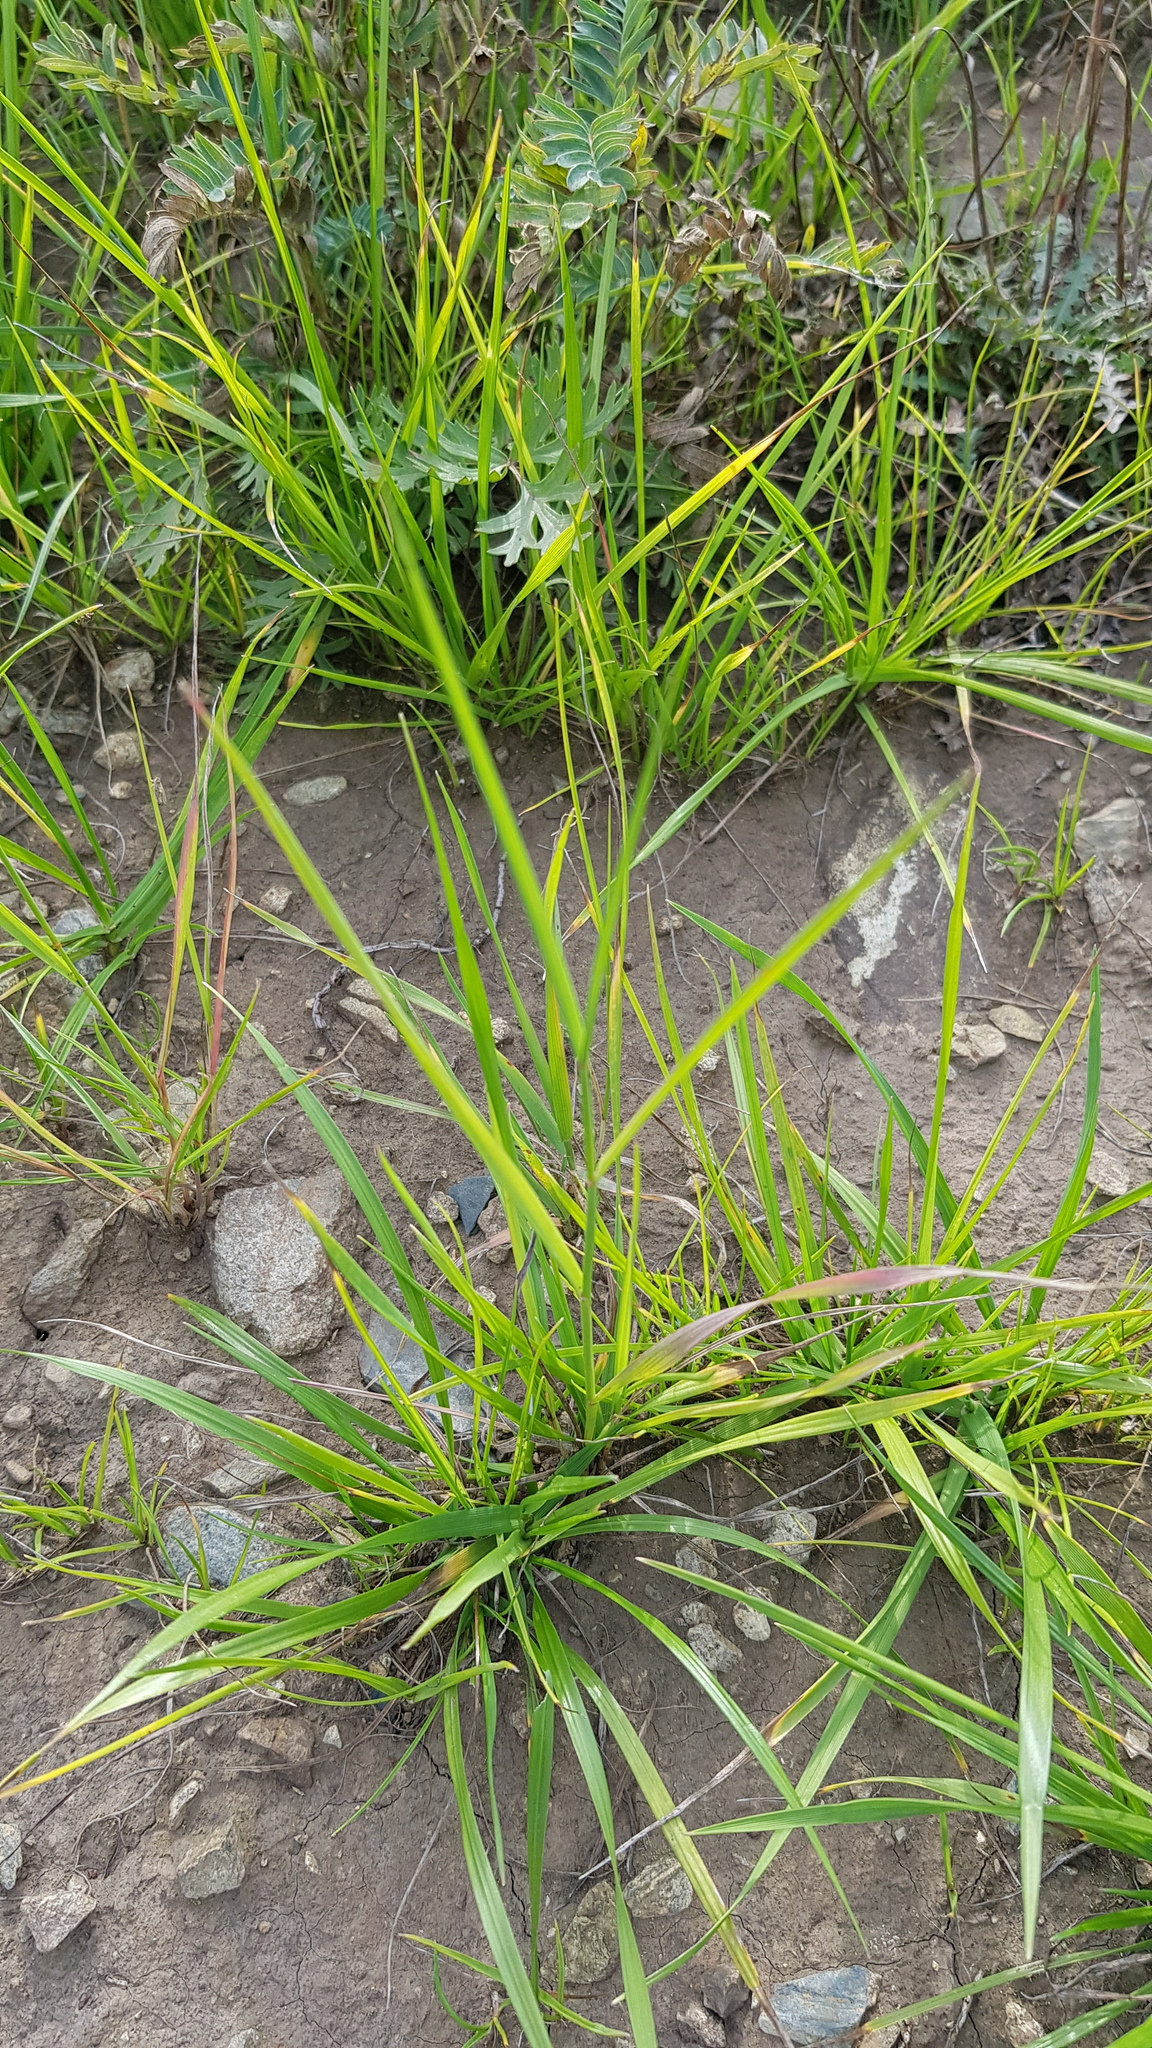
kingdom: Plantae
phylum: Tracheophyta
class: Liliopsida
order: Poales
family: Poaceae
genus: Cleistogenes
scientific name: Cleistogenes squarrosa
